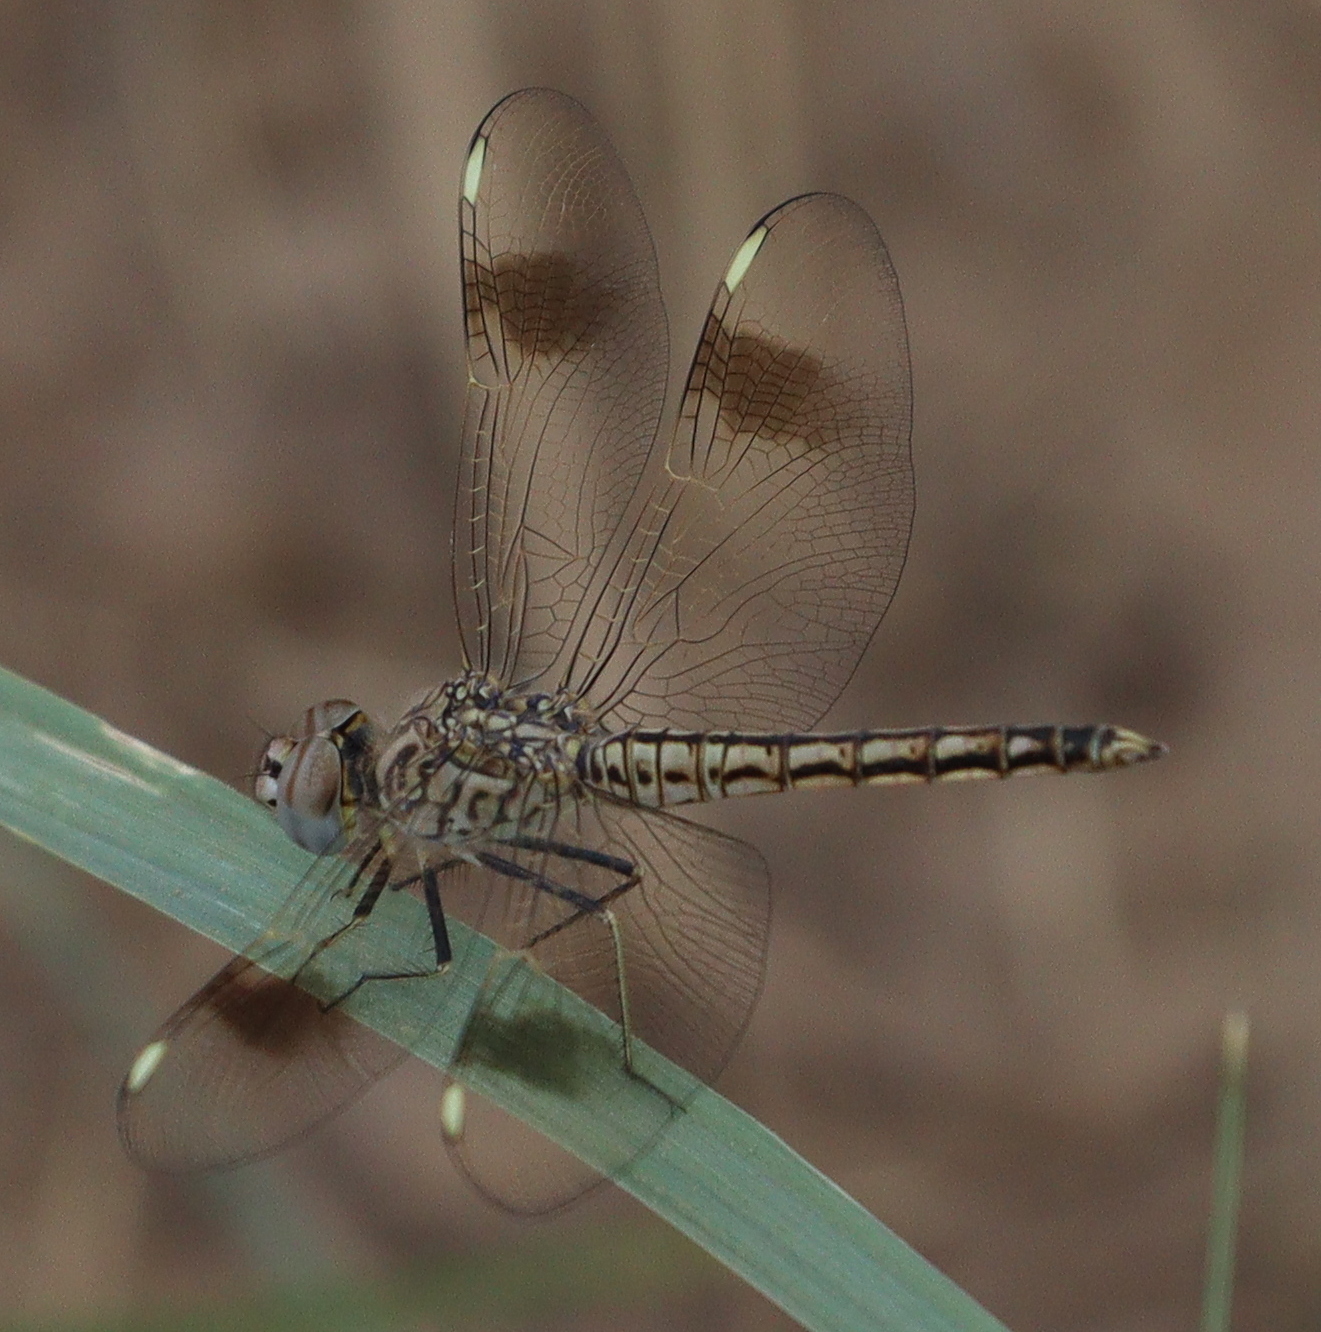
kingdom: Animalia
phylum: Arthropoda
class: Insecta
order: Odonata
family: Libellulidae
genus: Brachythemis
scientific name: Brachythemis impartita
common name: Banded groundling
